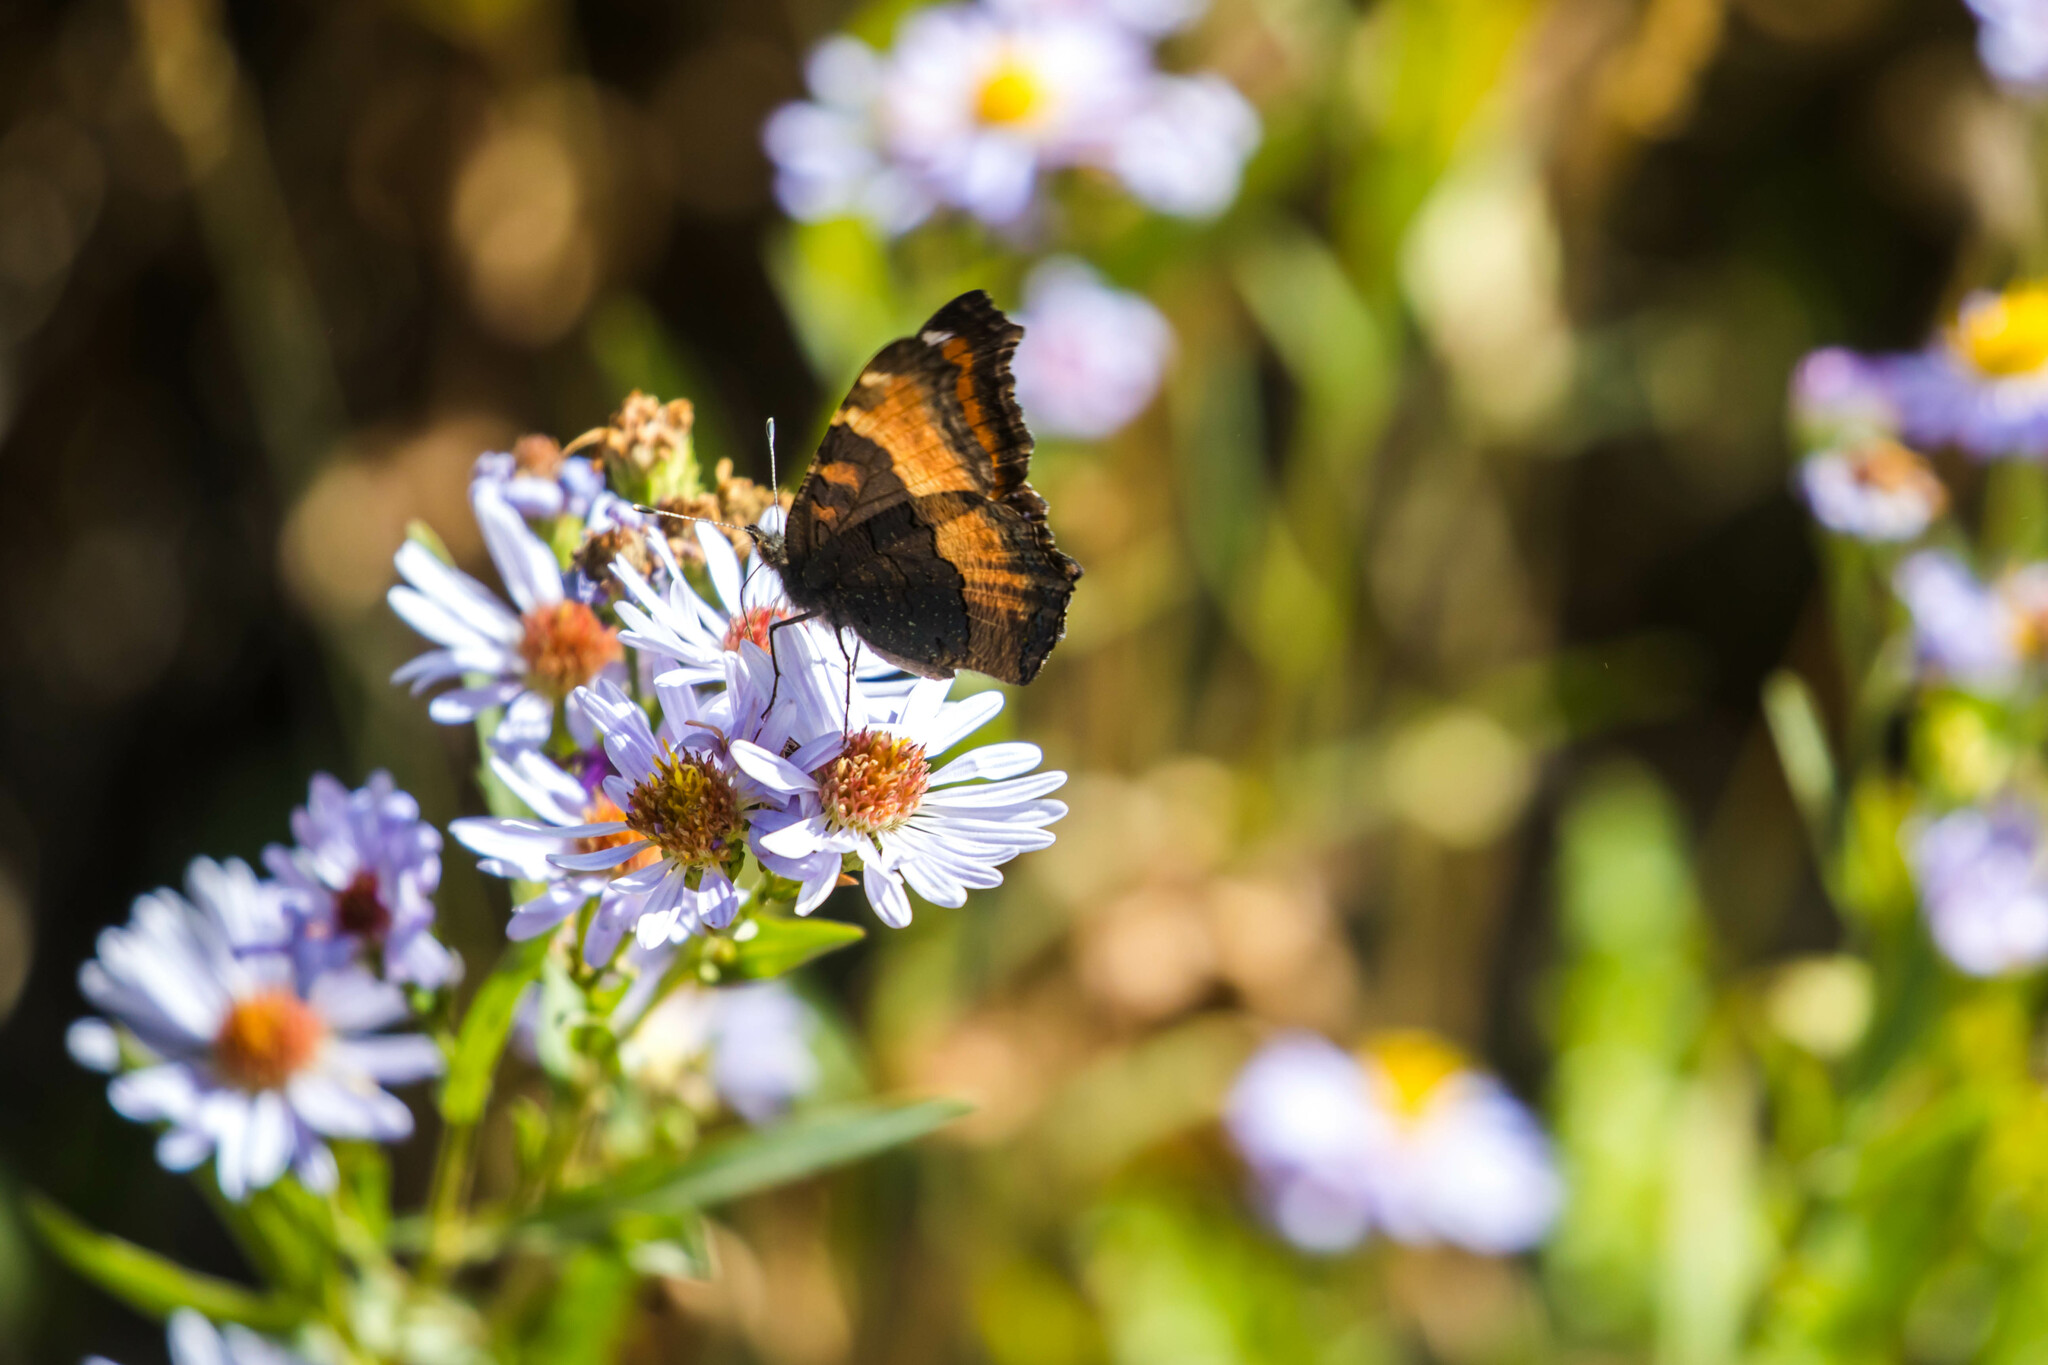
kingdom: Animalia
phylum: Arthropoda
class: Insecta
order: Lepidoptera
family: Nymphalidae
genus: Aglais
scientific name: Aglais milberti
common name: Milbert's tortoiseshell
